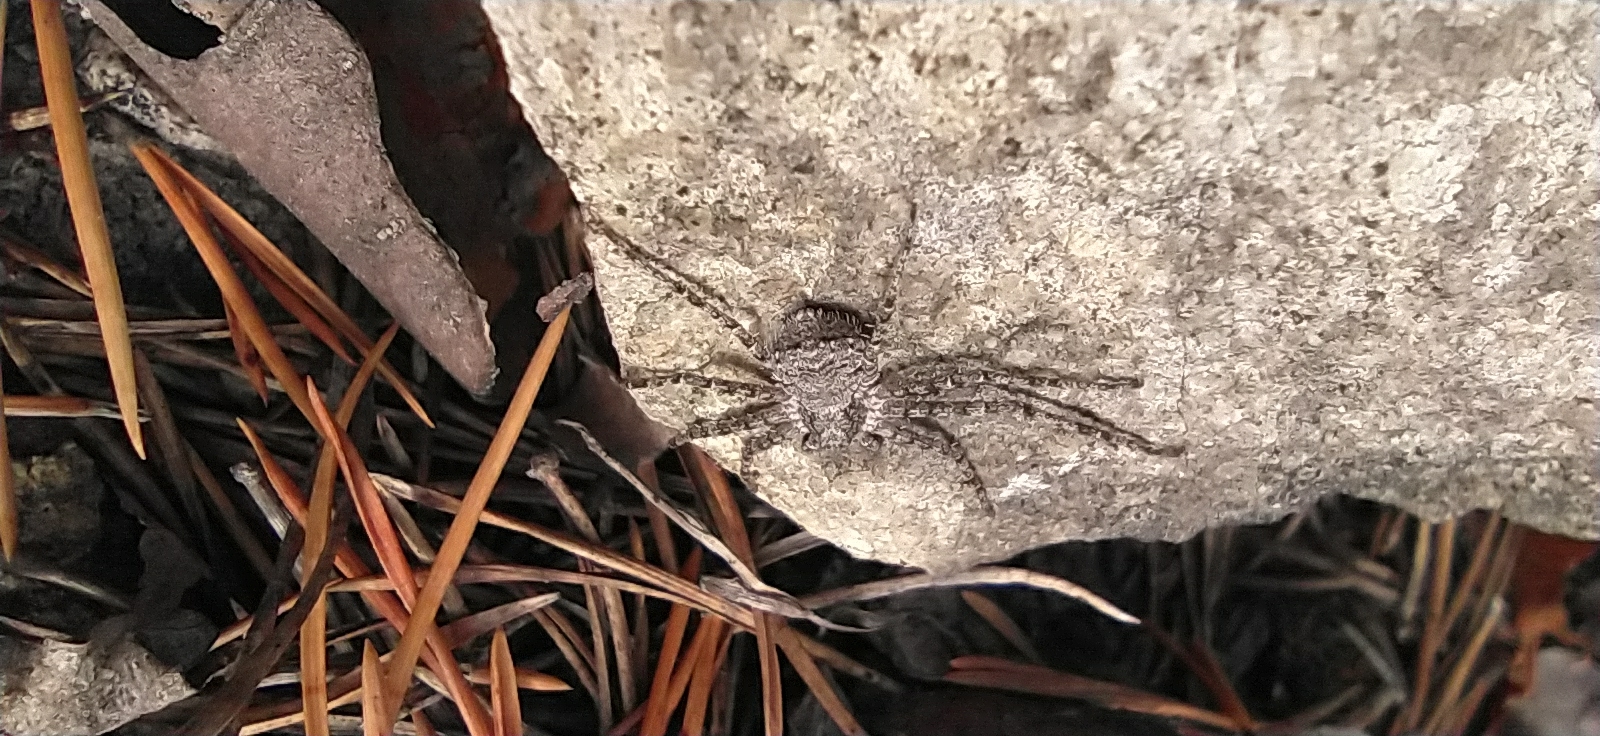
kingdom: Animalia
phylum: Arthropoda
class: Arachnida
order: Araneae
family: Philodromidae
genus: Philodromus
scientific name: Philodromus margaritatus
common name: Lichen running-spider
